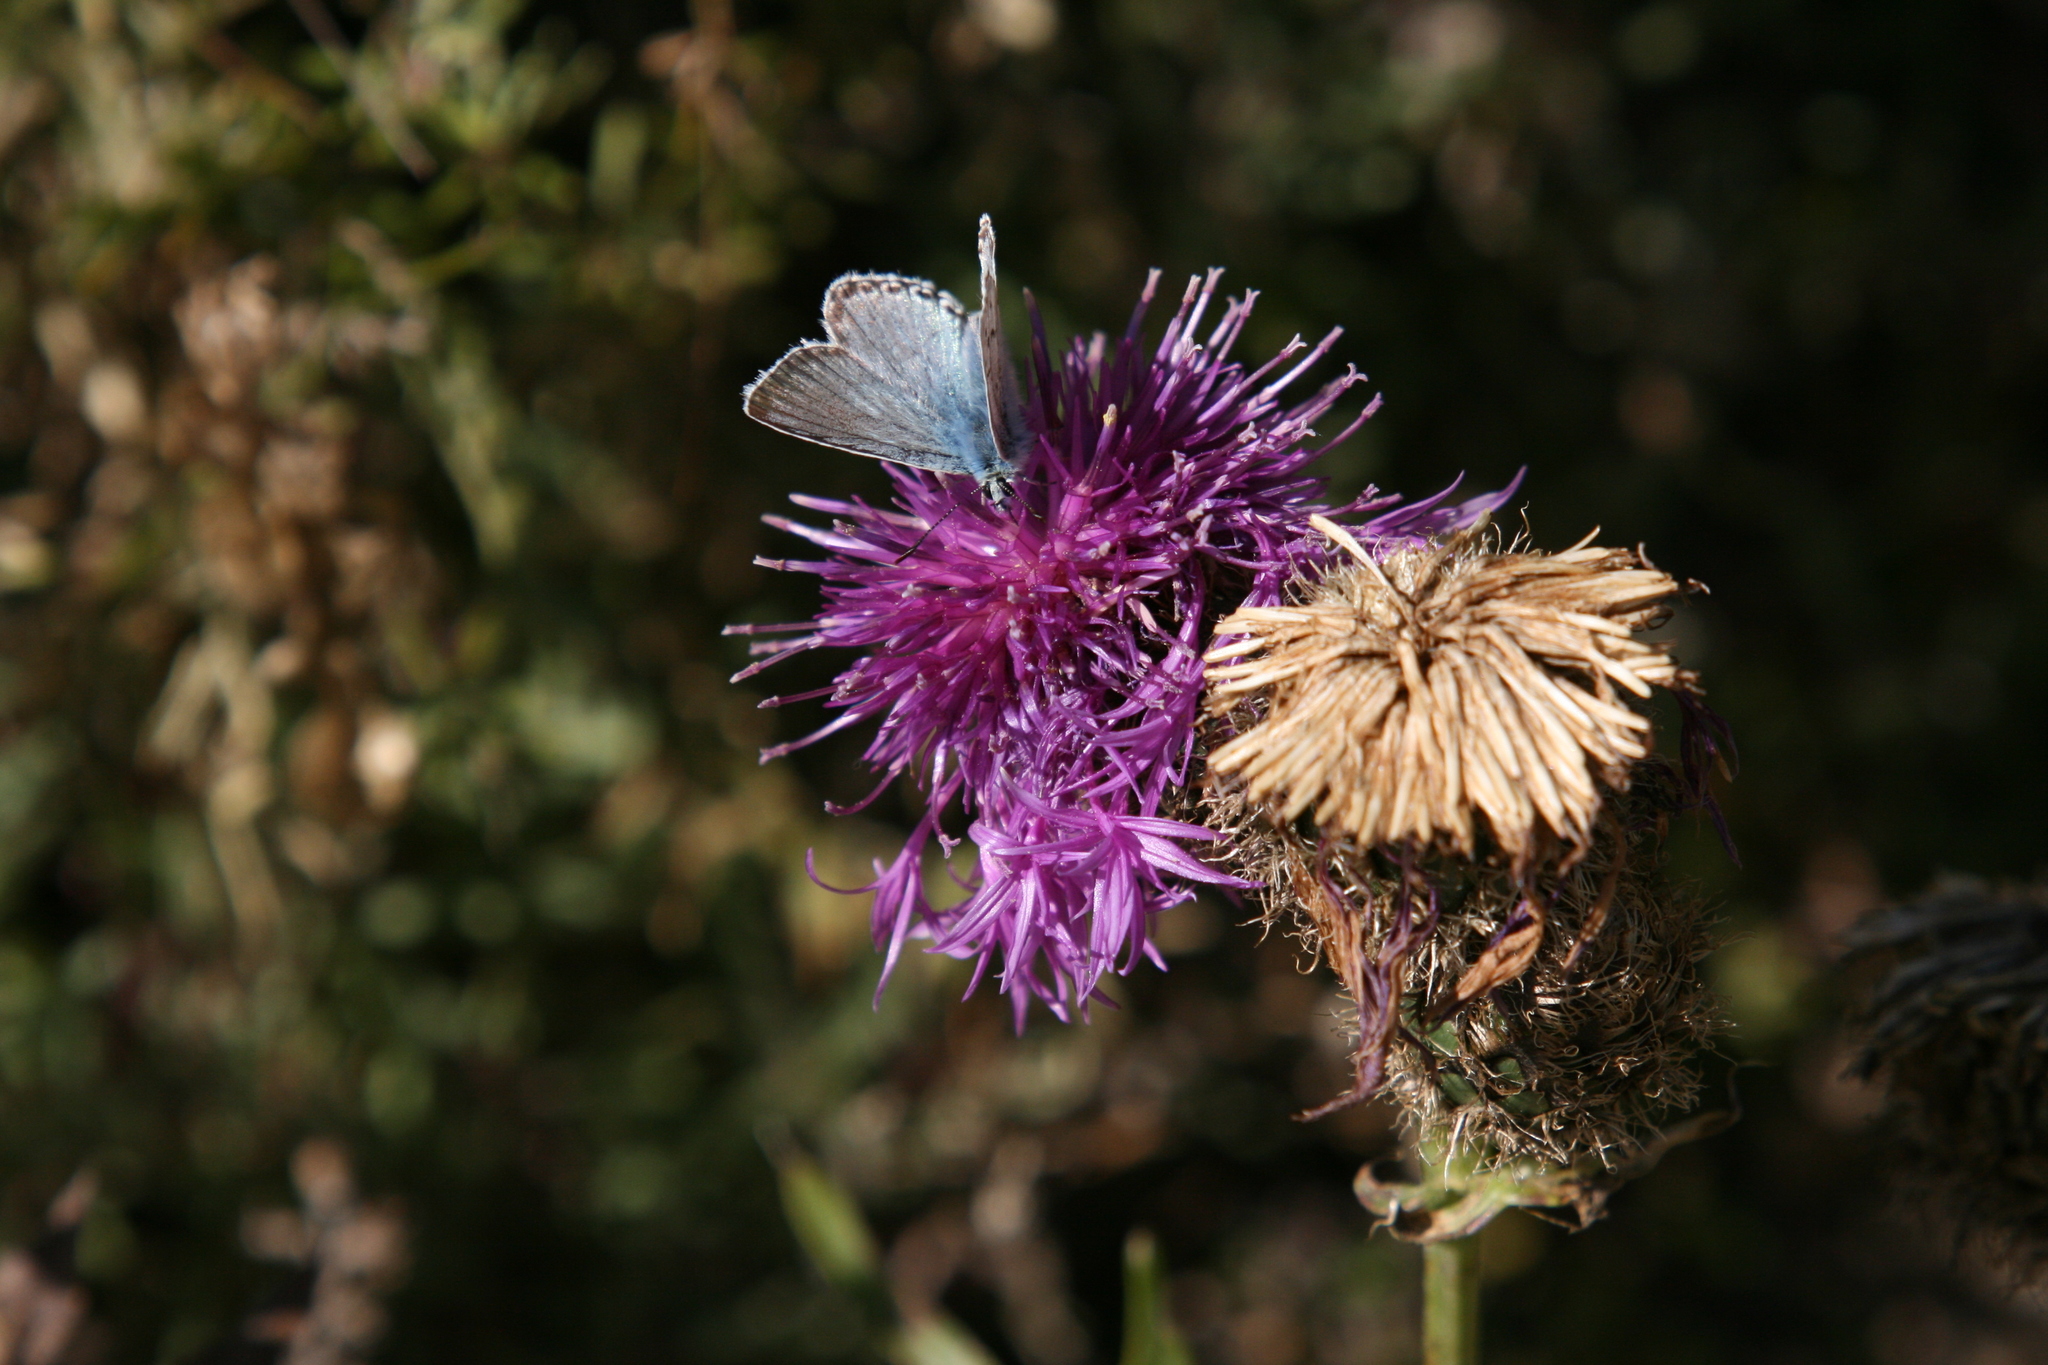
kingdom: Animalia
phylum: Arthropoda
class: Insecta
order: Lepidoptera
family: Lycaenidae
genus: Lysandra
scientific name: Lysandra coridon
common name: Chalkhill blue
